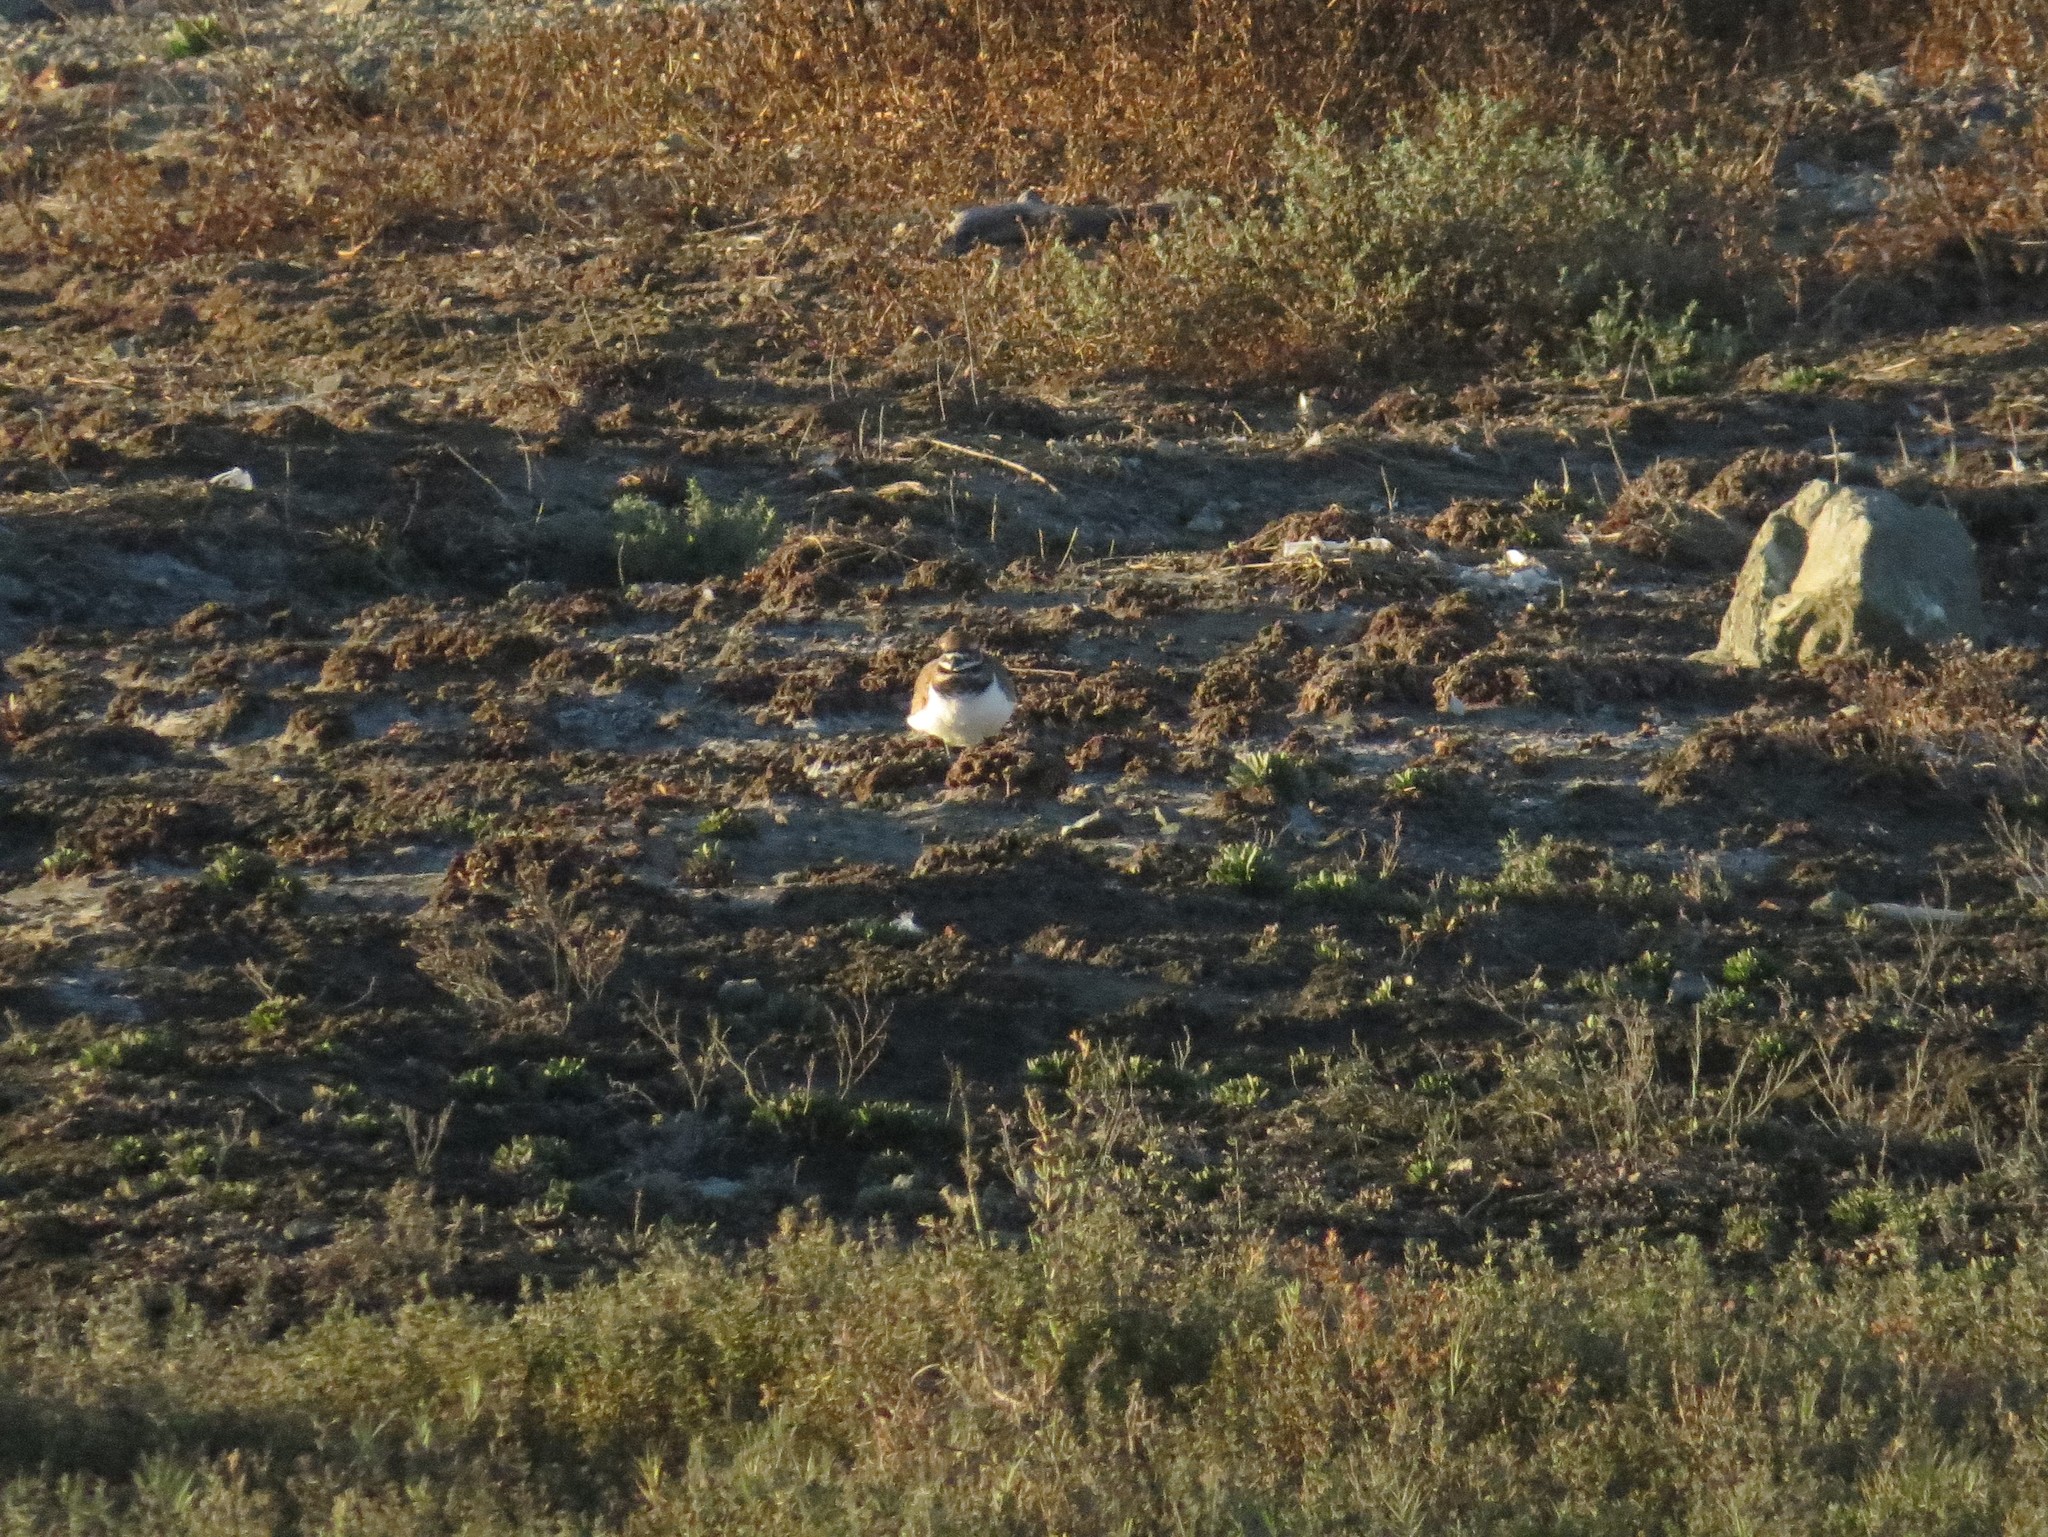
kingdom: Animalia
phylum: Chordata
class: Aves
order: Charadriiformes
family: Charadriidae
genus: Charadrius
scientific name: Charadrius vociferus
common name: Killdeer
